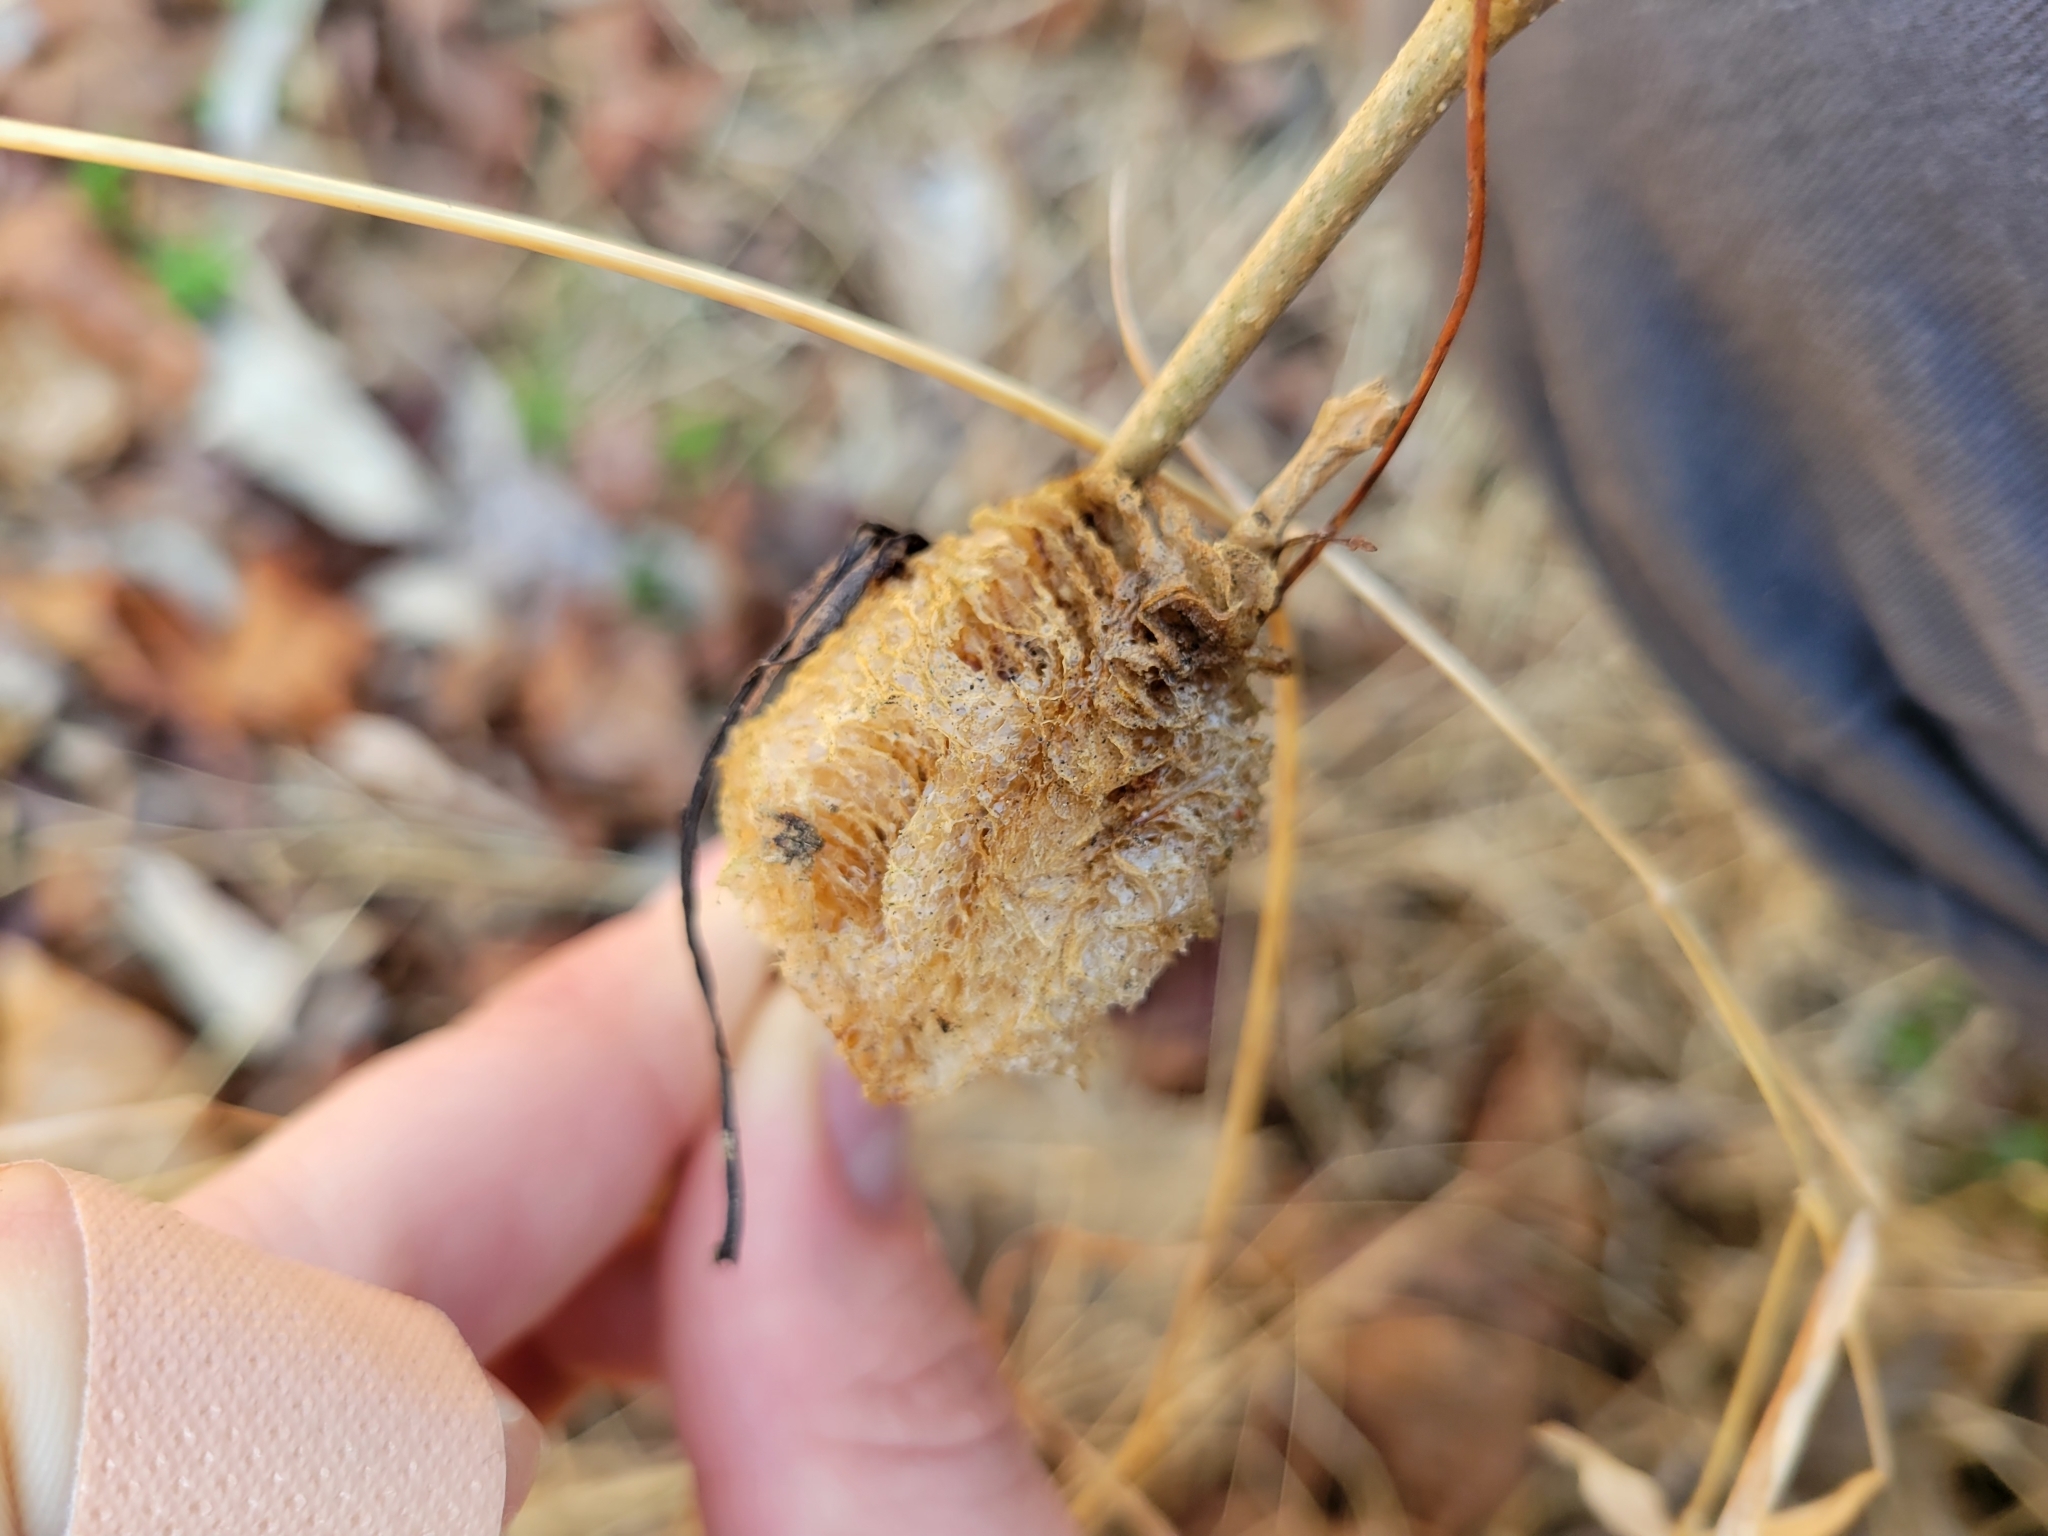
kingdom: Animalia
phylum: Arthropoda
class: Insecta
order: Mantodea
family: Mantidae
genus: Tenodera
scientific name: Tenodera sinensis
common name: Chinese mantis
